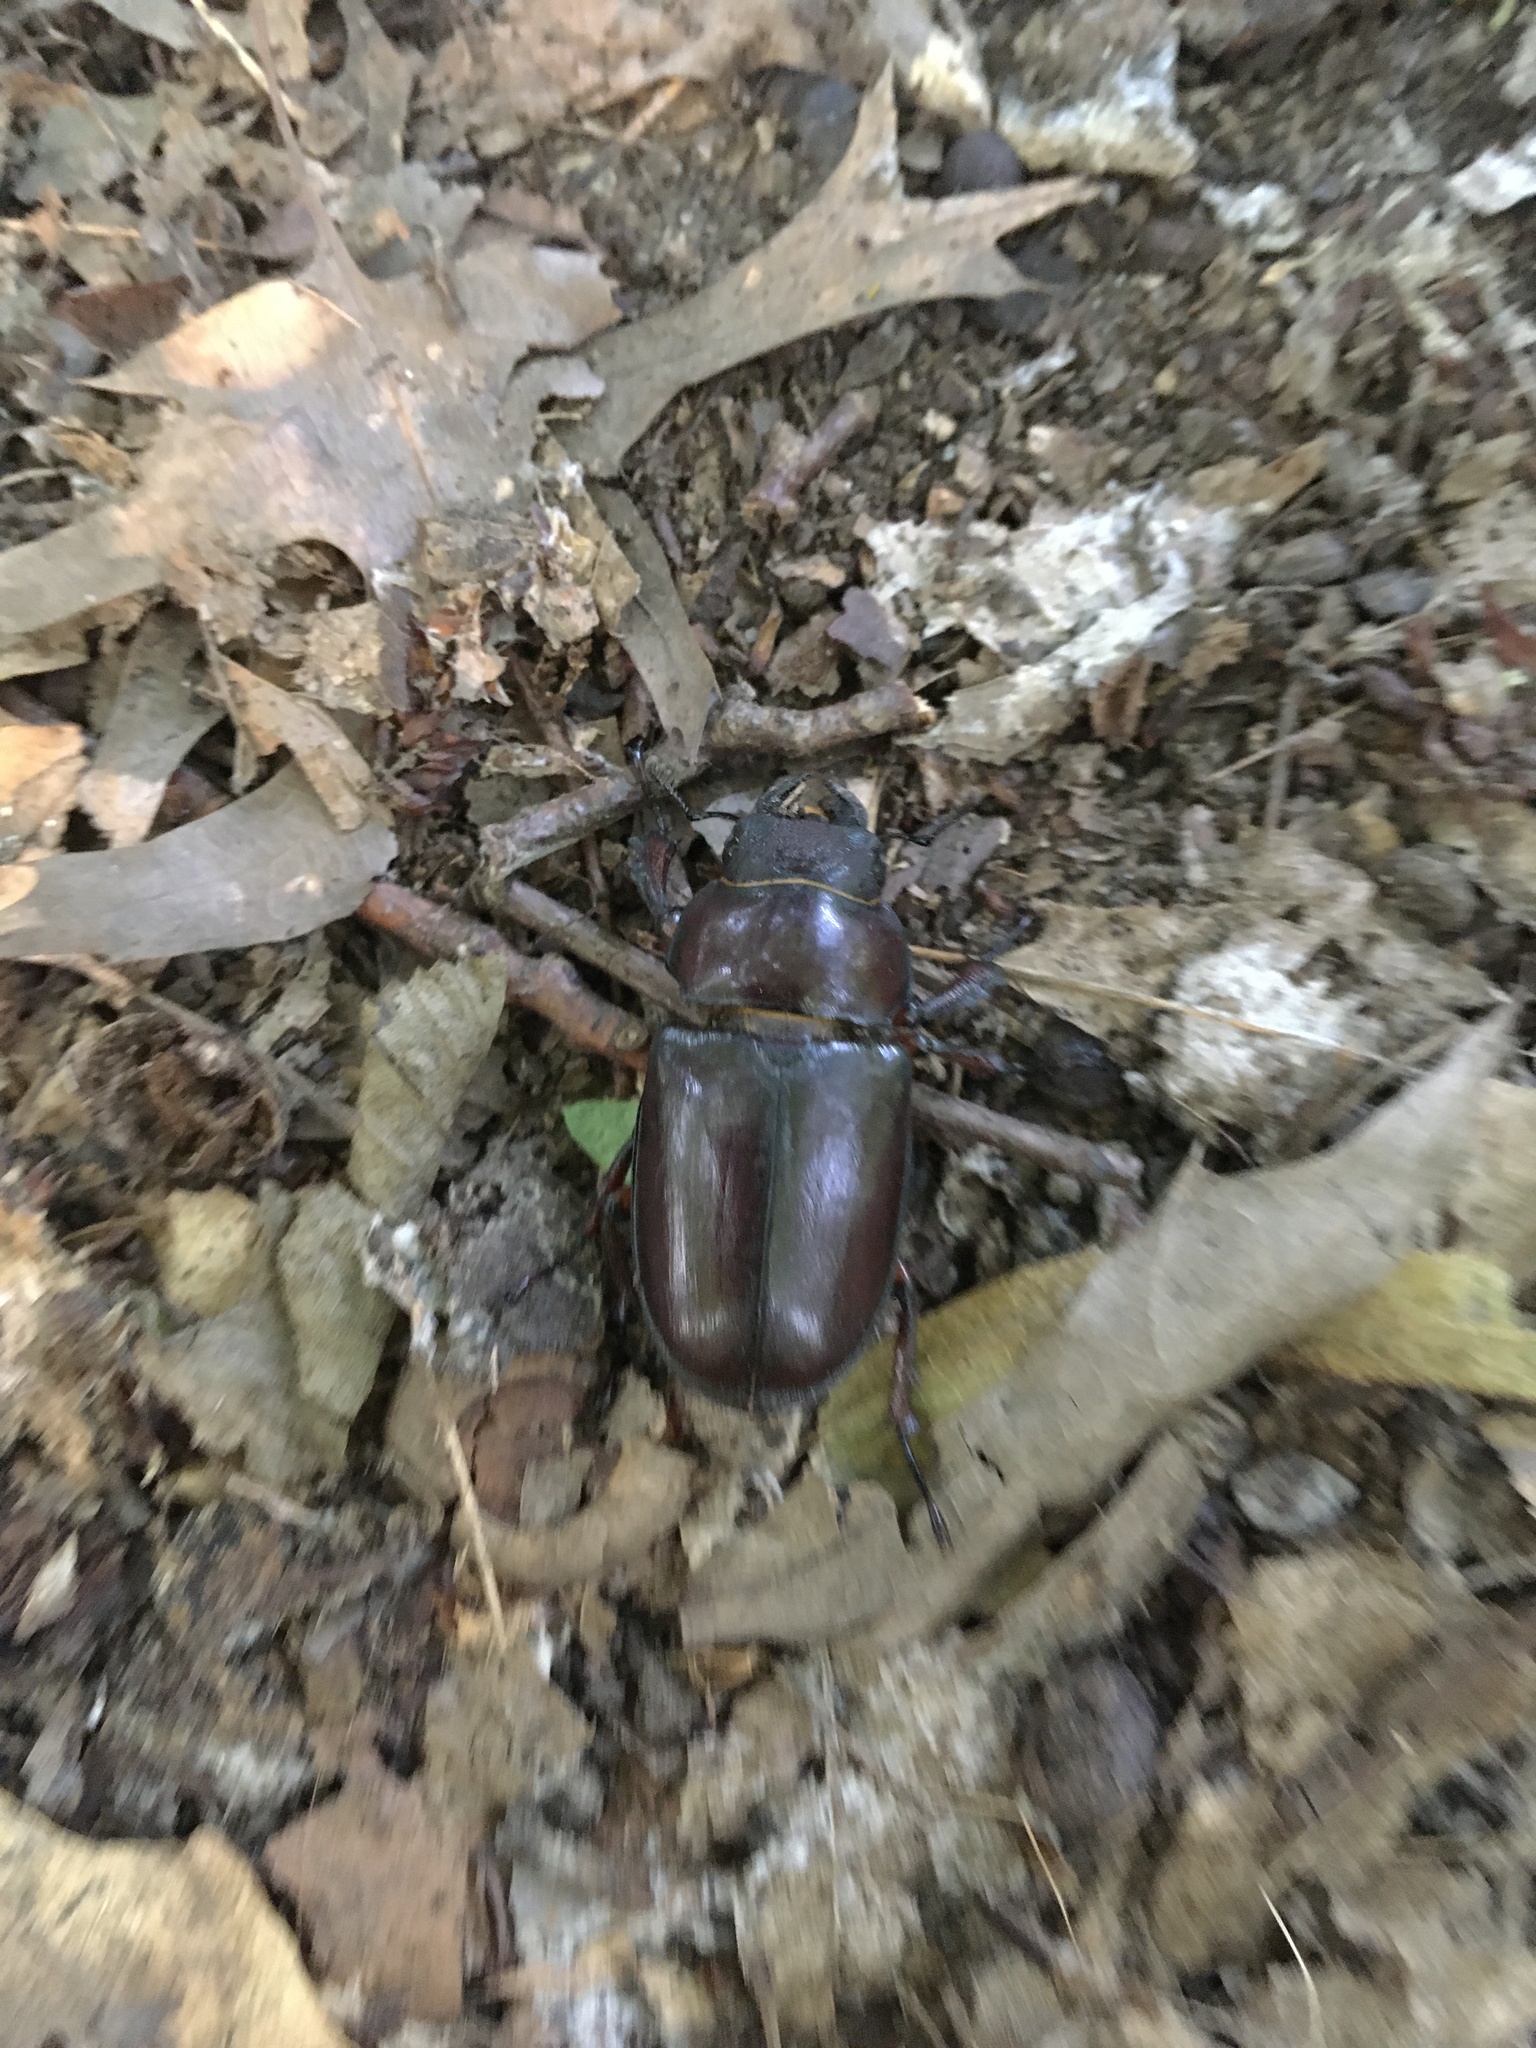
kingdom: Animalia
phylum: Arthropoda
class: Insecta
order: Coleoptera
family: Lucanidae
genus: Lucanus
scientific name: Lucanus capreolus
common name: Stag beetle
